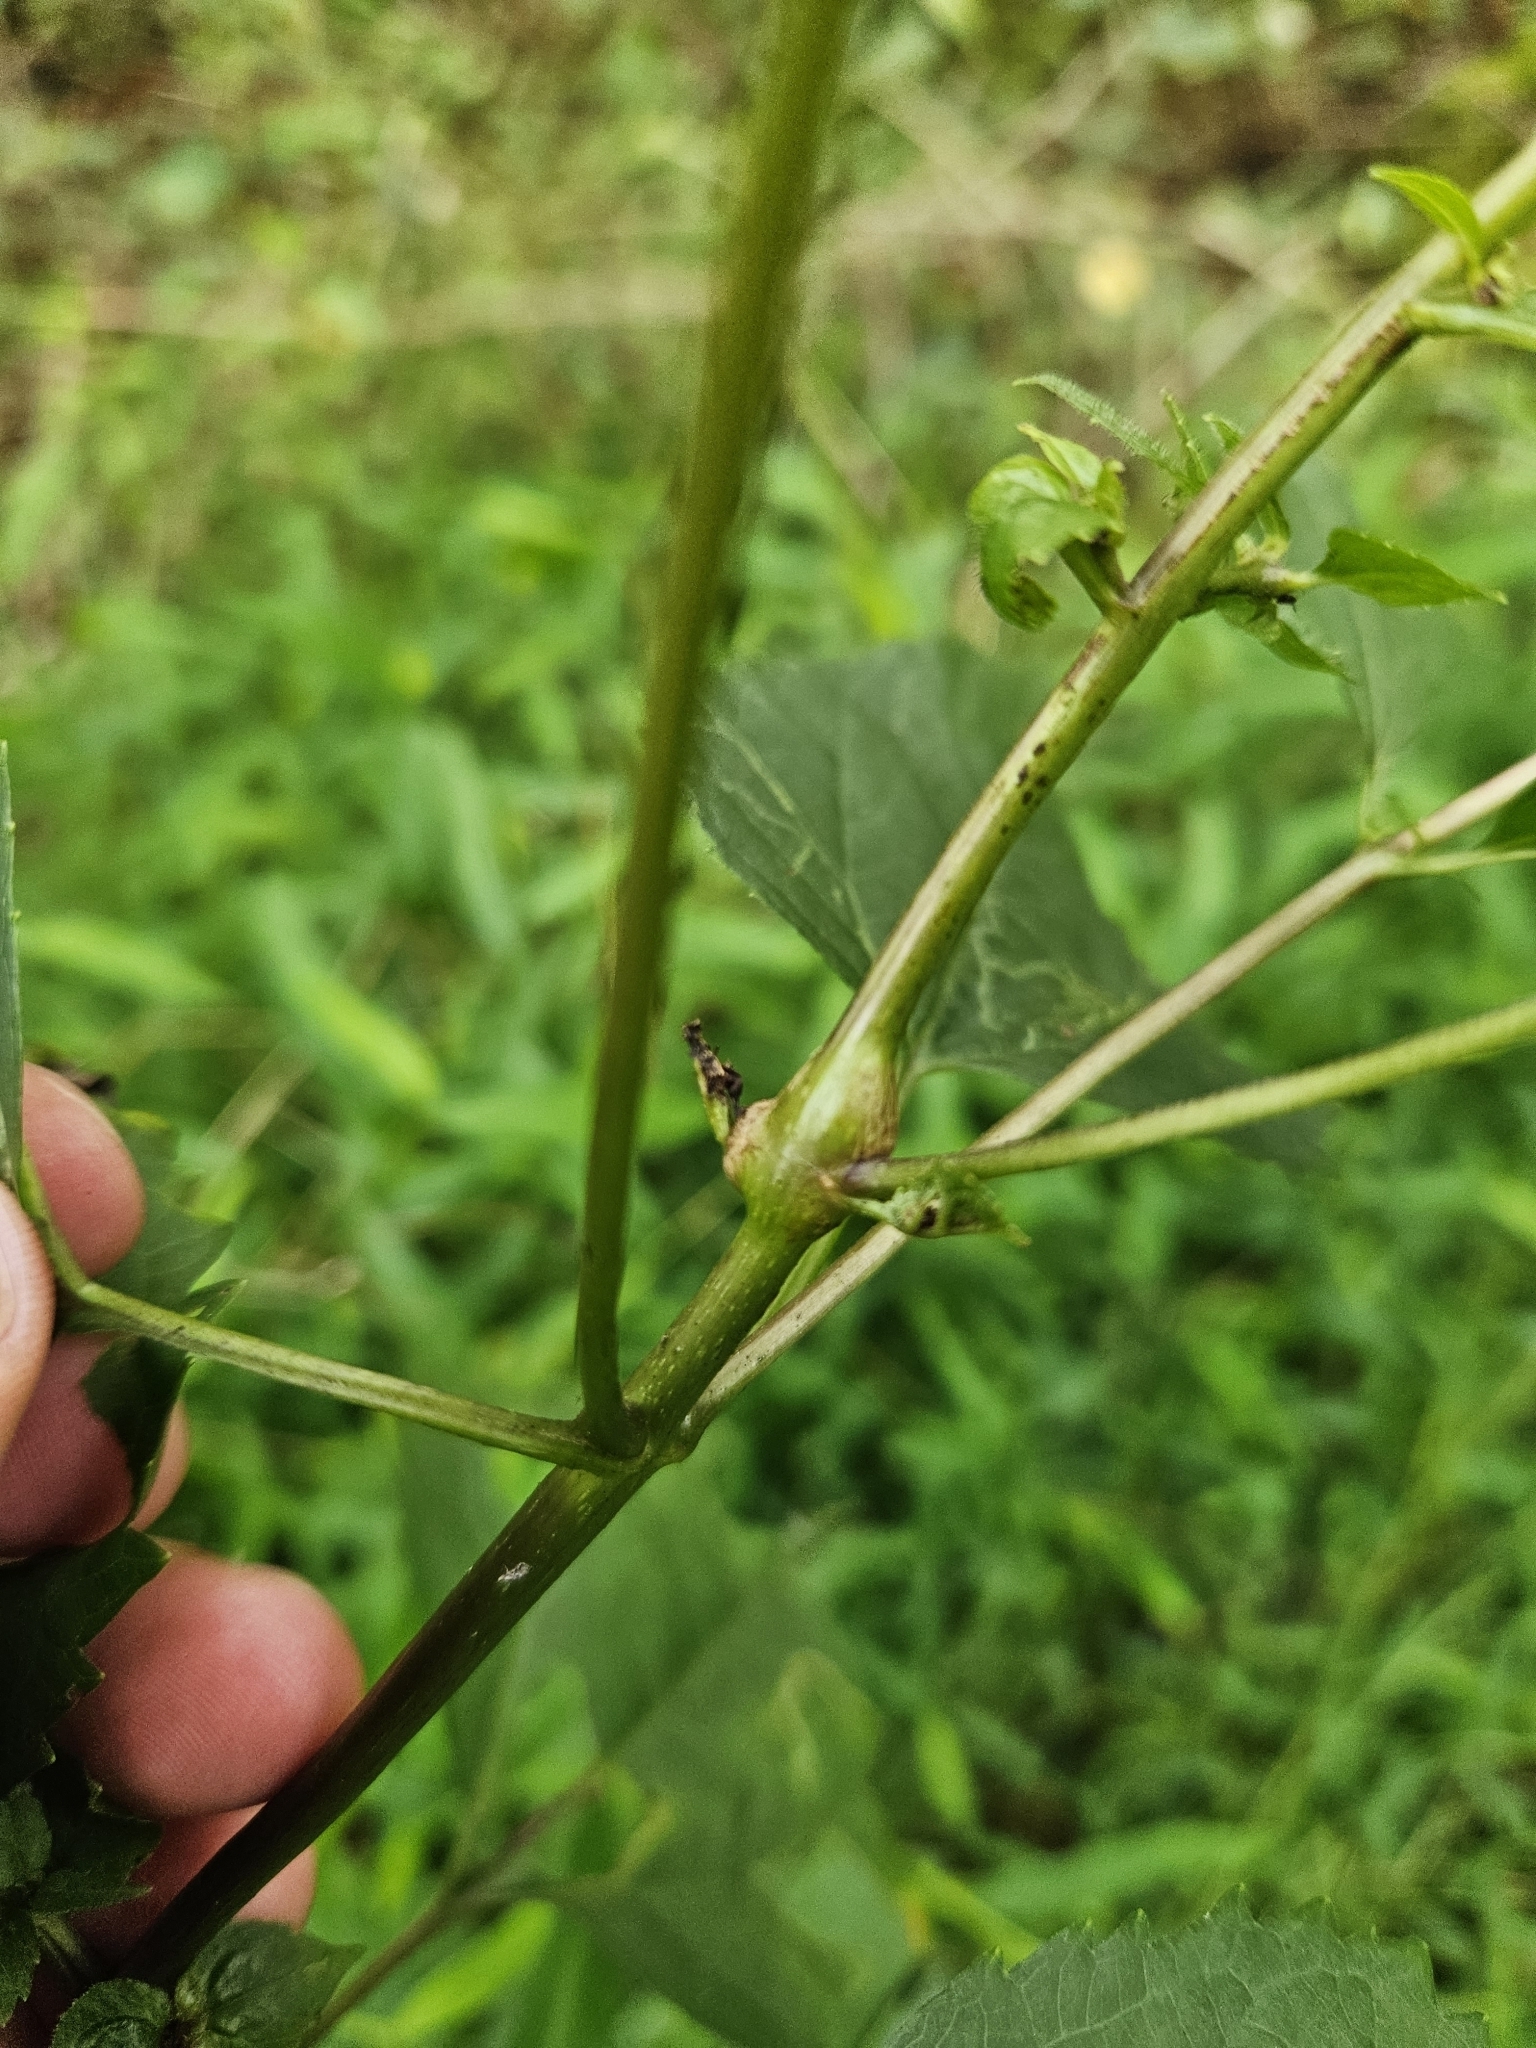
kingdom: Animalia
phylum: Arthropoda
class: Insecta
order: Diptera
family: Cecidomyiidae
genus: Neolasioptera
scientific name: Neolasioptera eupatorii
